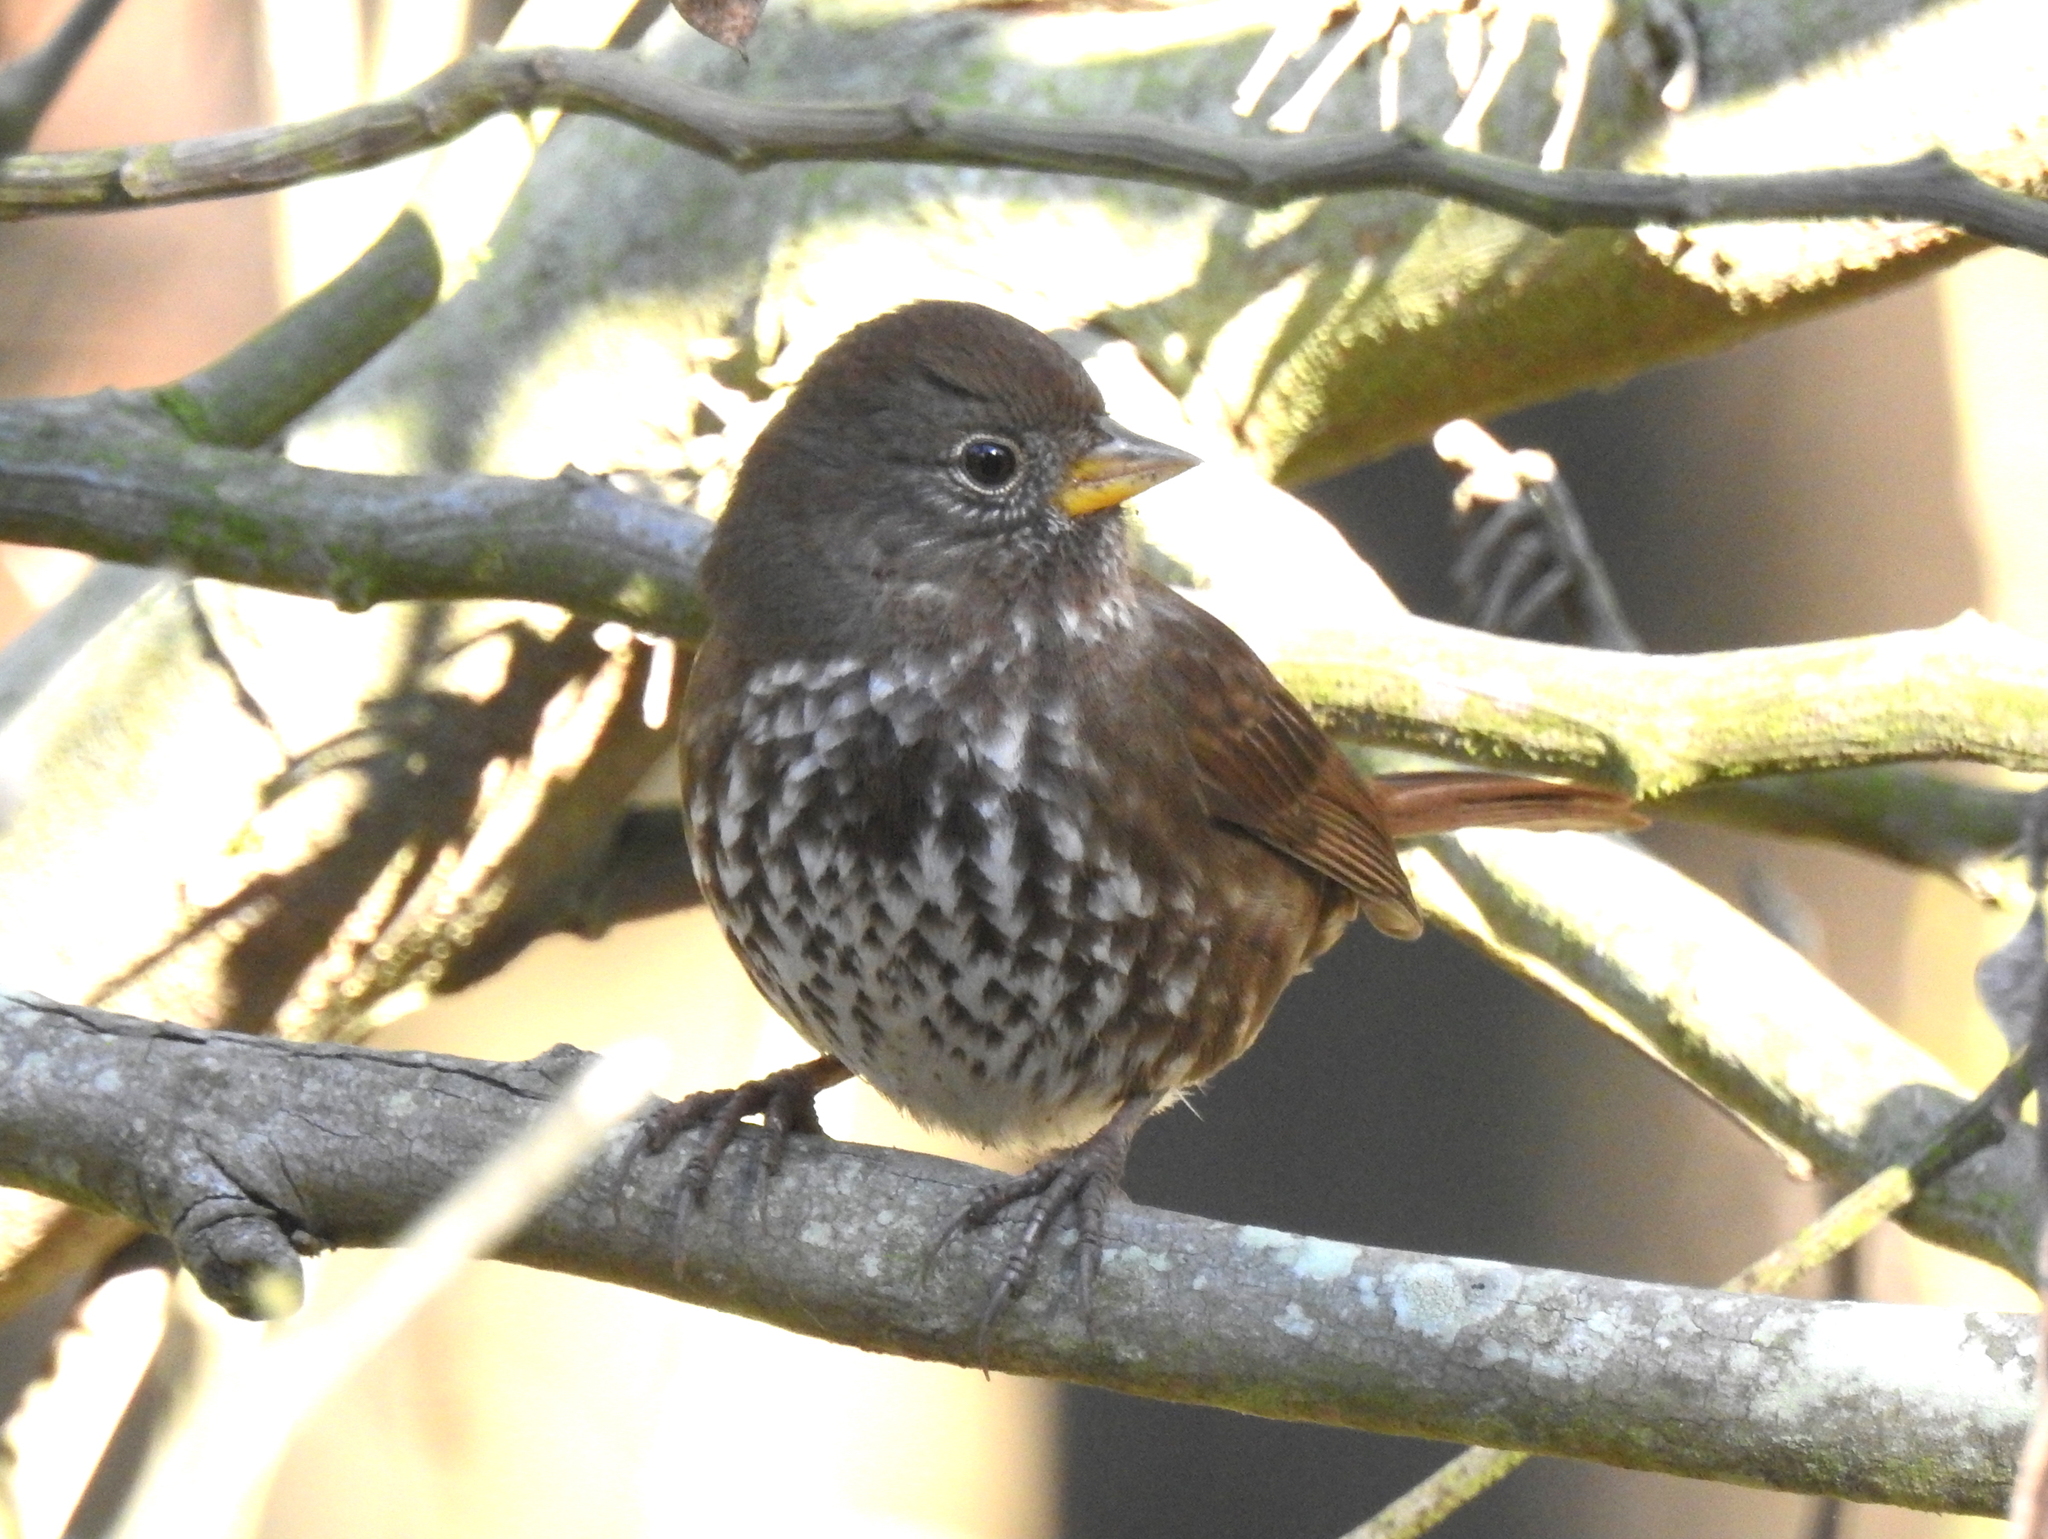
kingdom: Animalia
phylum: Chordata
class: Aves
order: Passeriformes
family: Passerellidae
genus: Passerella
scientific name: Passerella iliaca
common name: Fox sparrow
